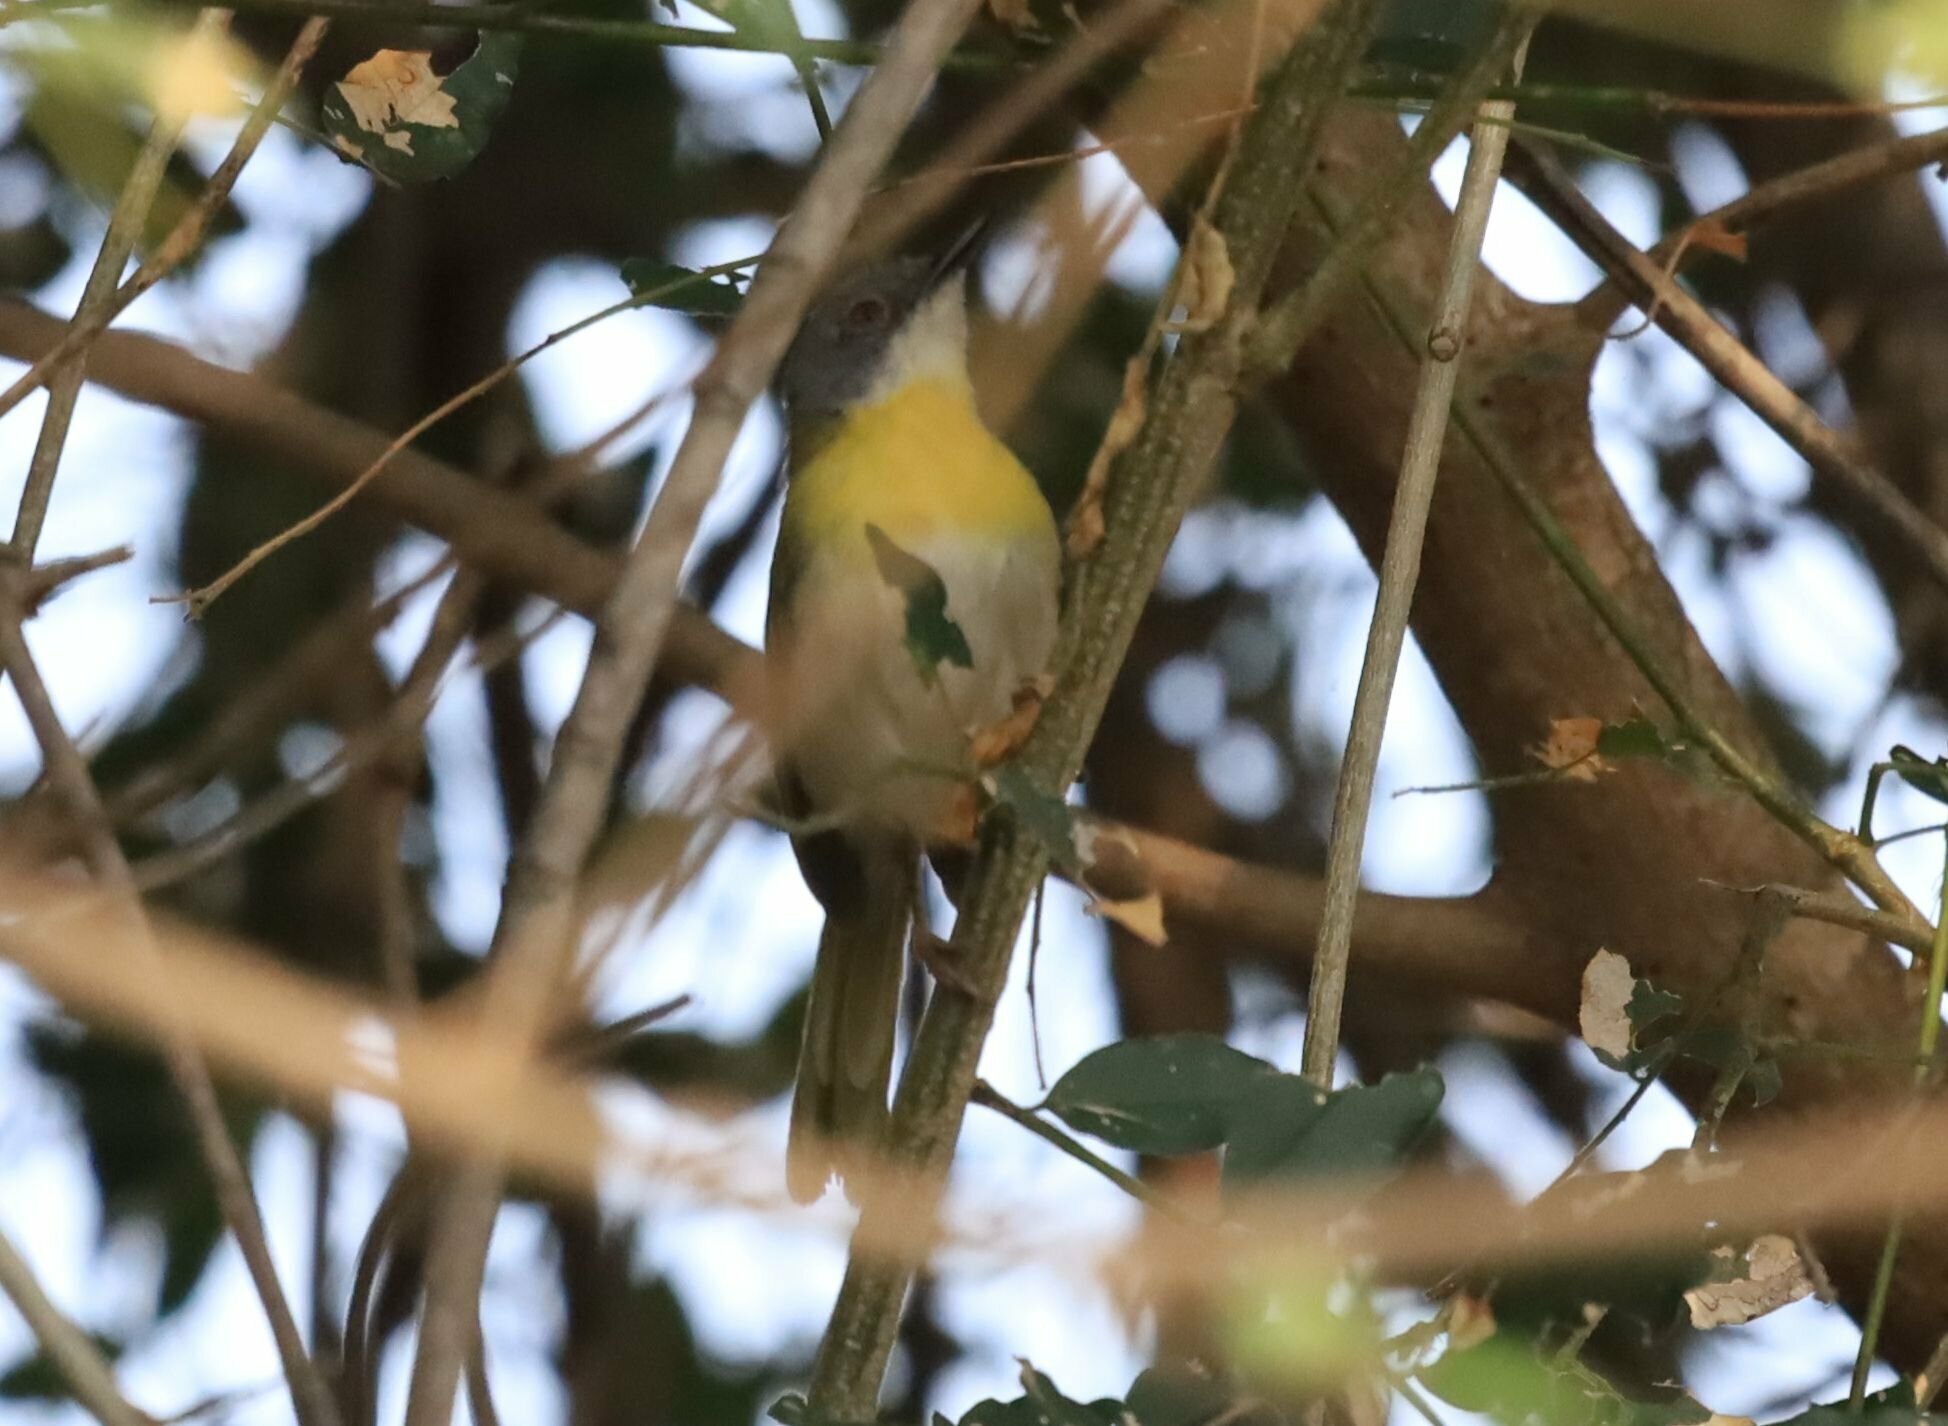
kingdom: Animalia
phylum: Chordata
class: Aves
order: Passeriformes
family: Cisticolidae
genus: Apalis
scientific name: Apalis flavida
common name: Yellow-breasted apalis
